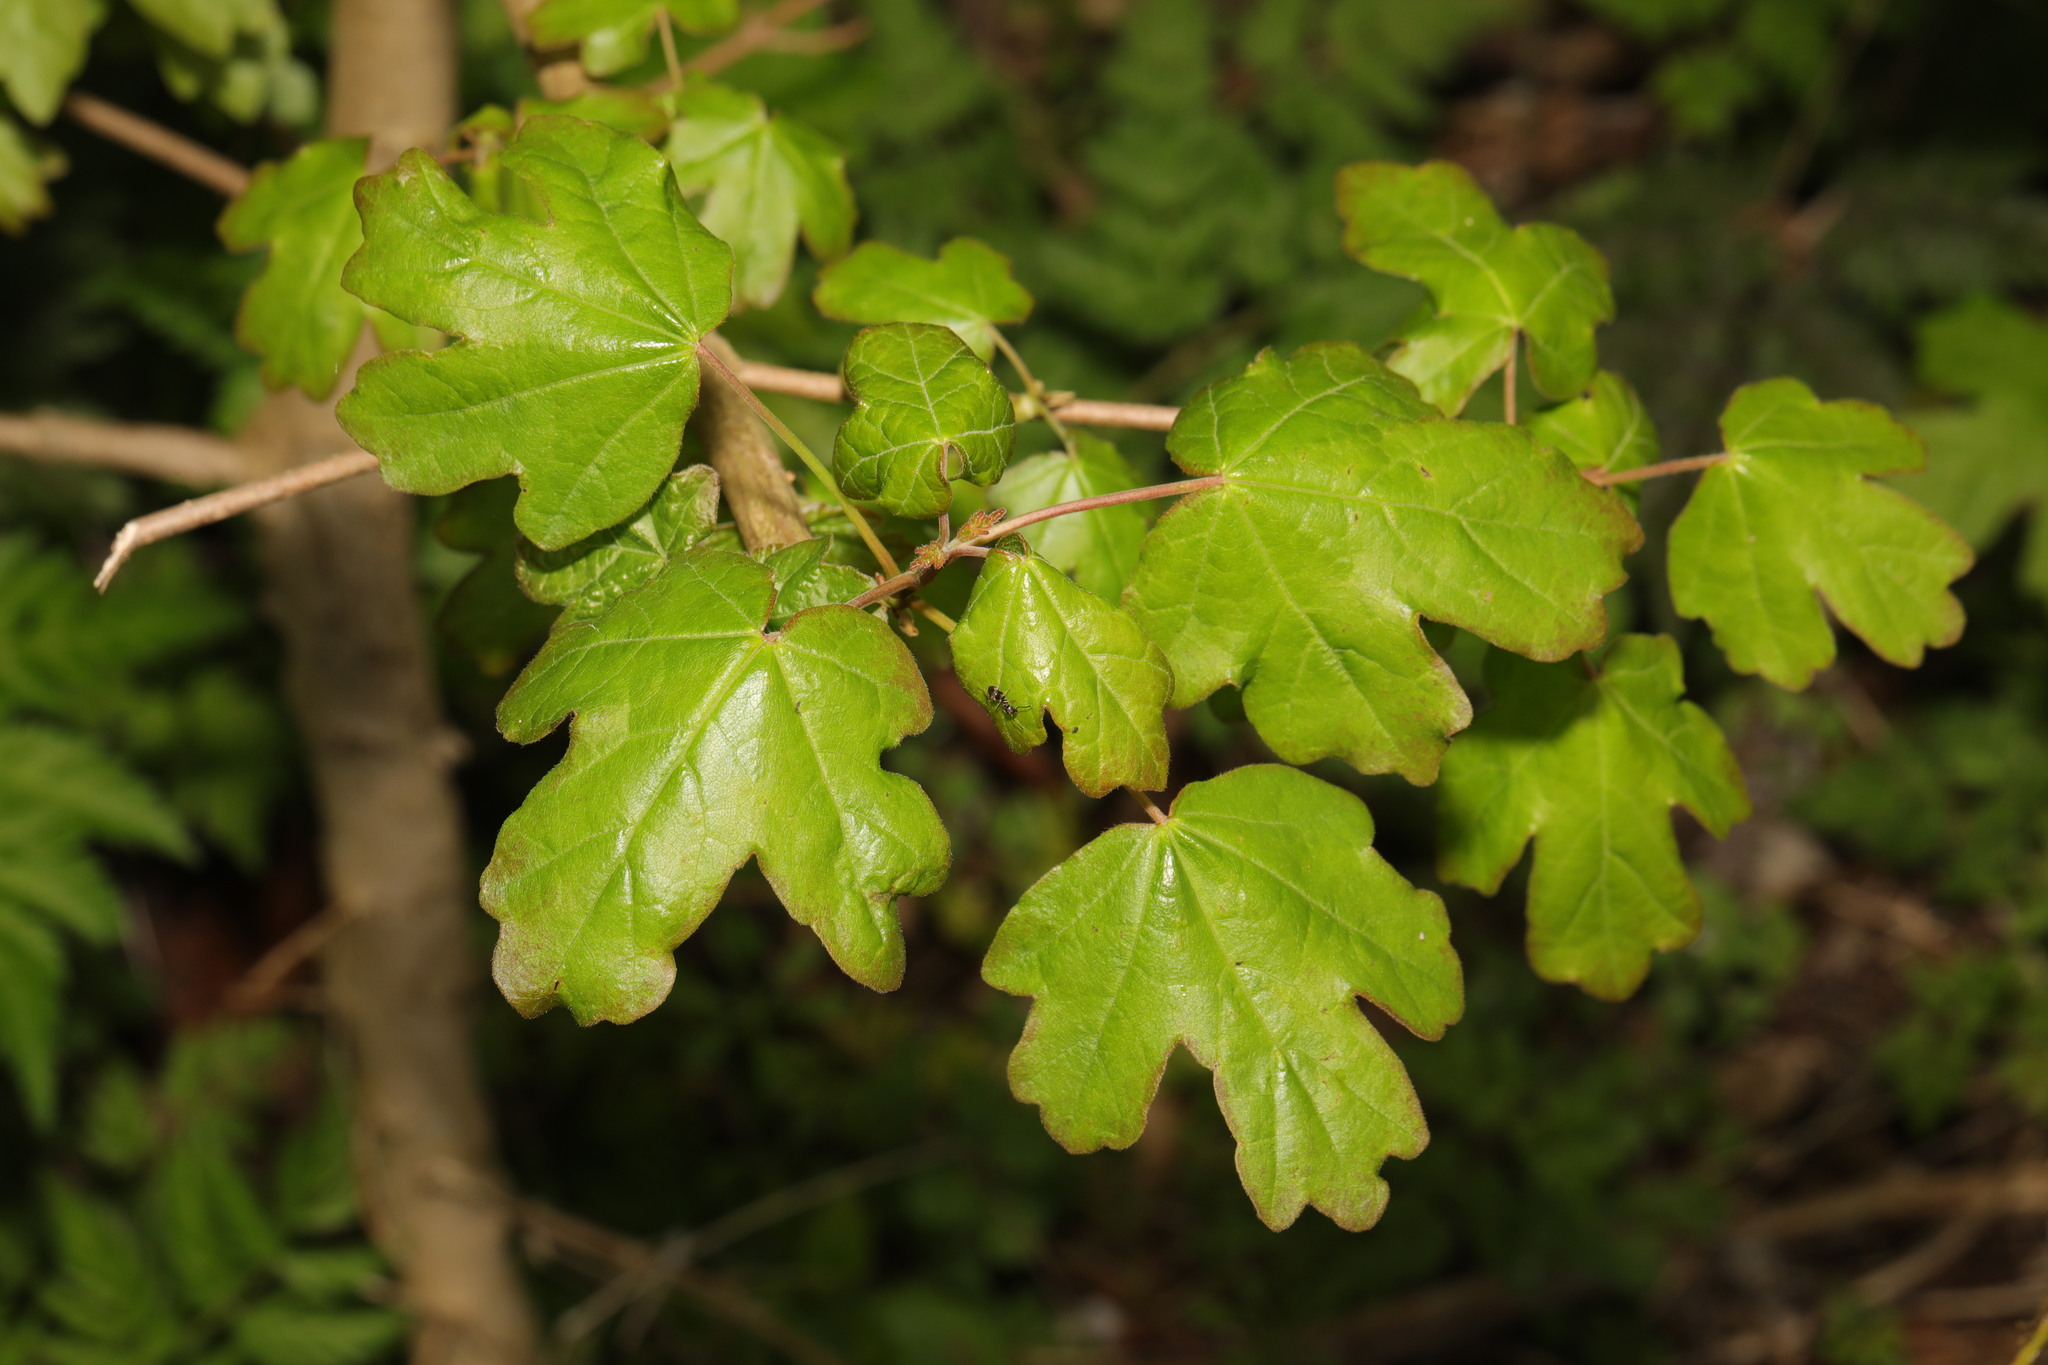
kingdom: Plantae
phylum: Tracheophyta
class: Magnoliopsida
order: Sapindales
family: Sapindaceae
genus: Acer
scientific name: Acer campestre
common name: Field maple
